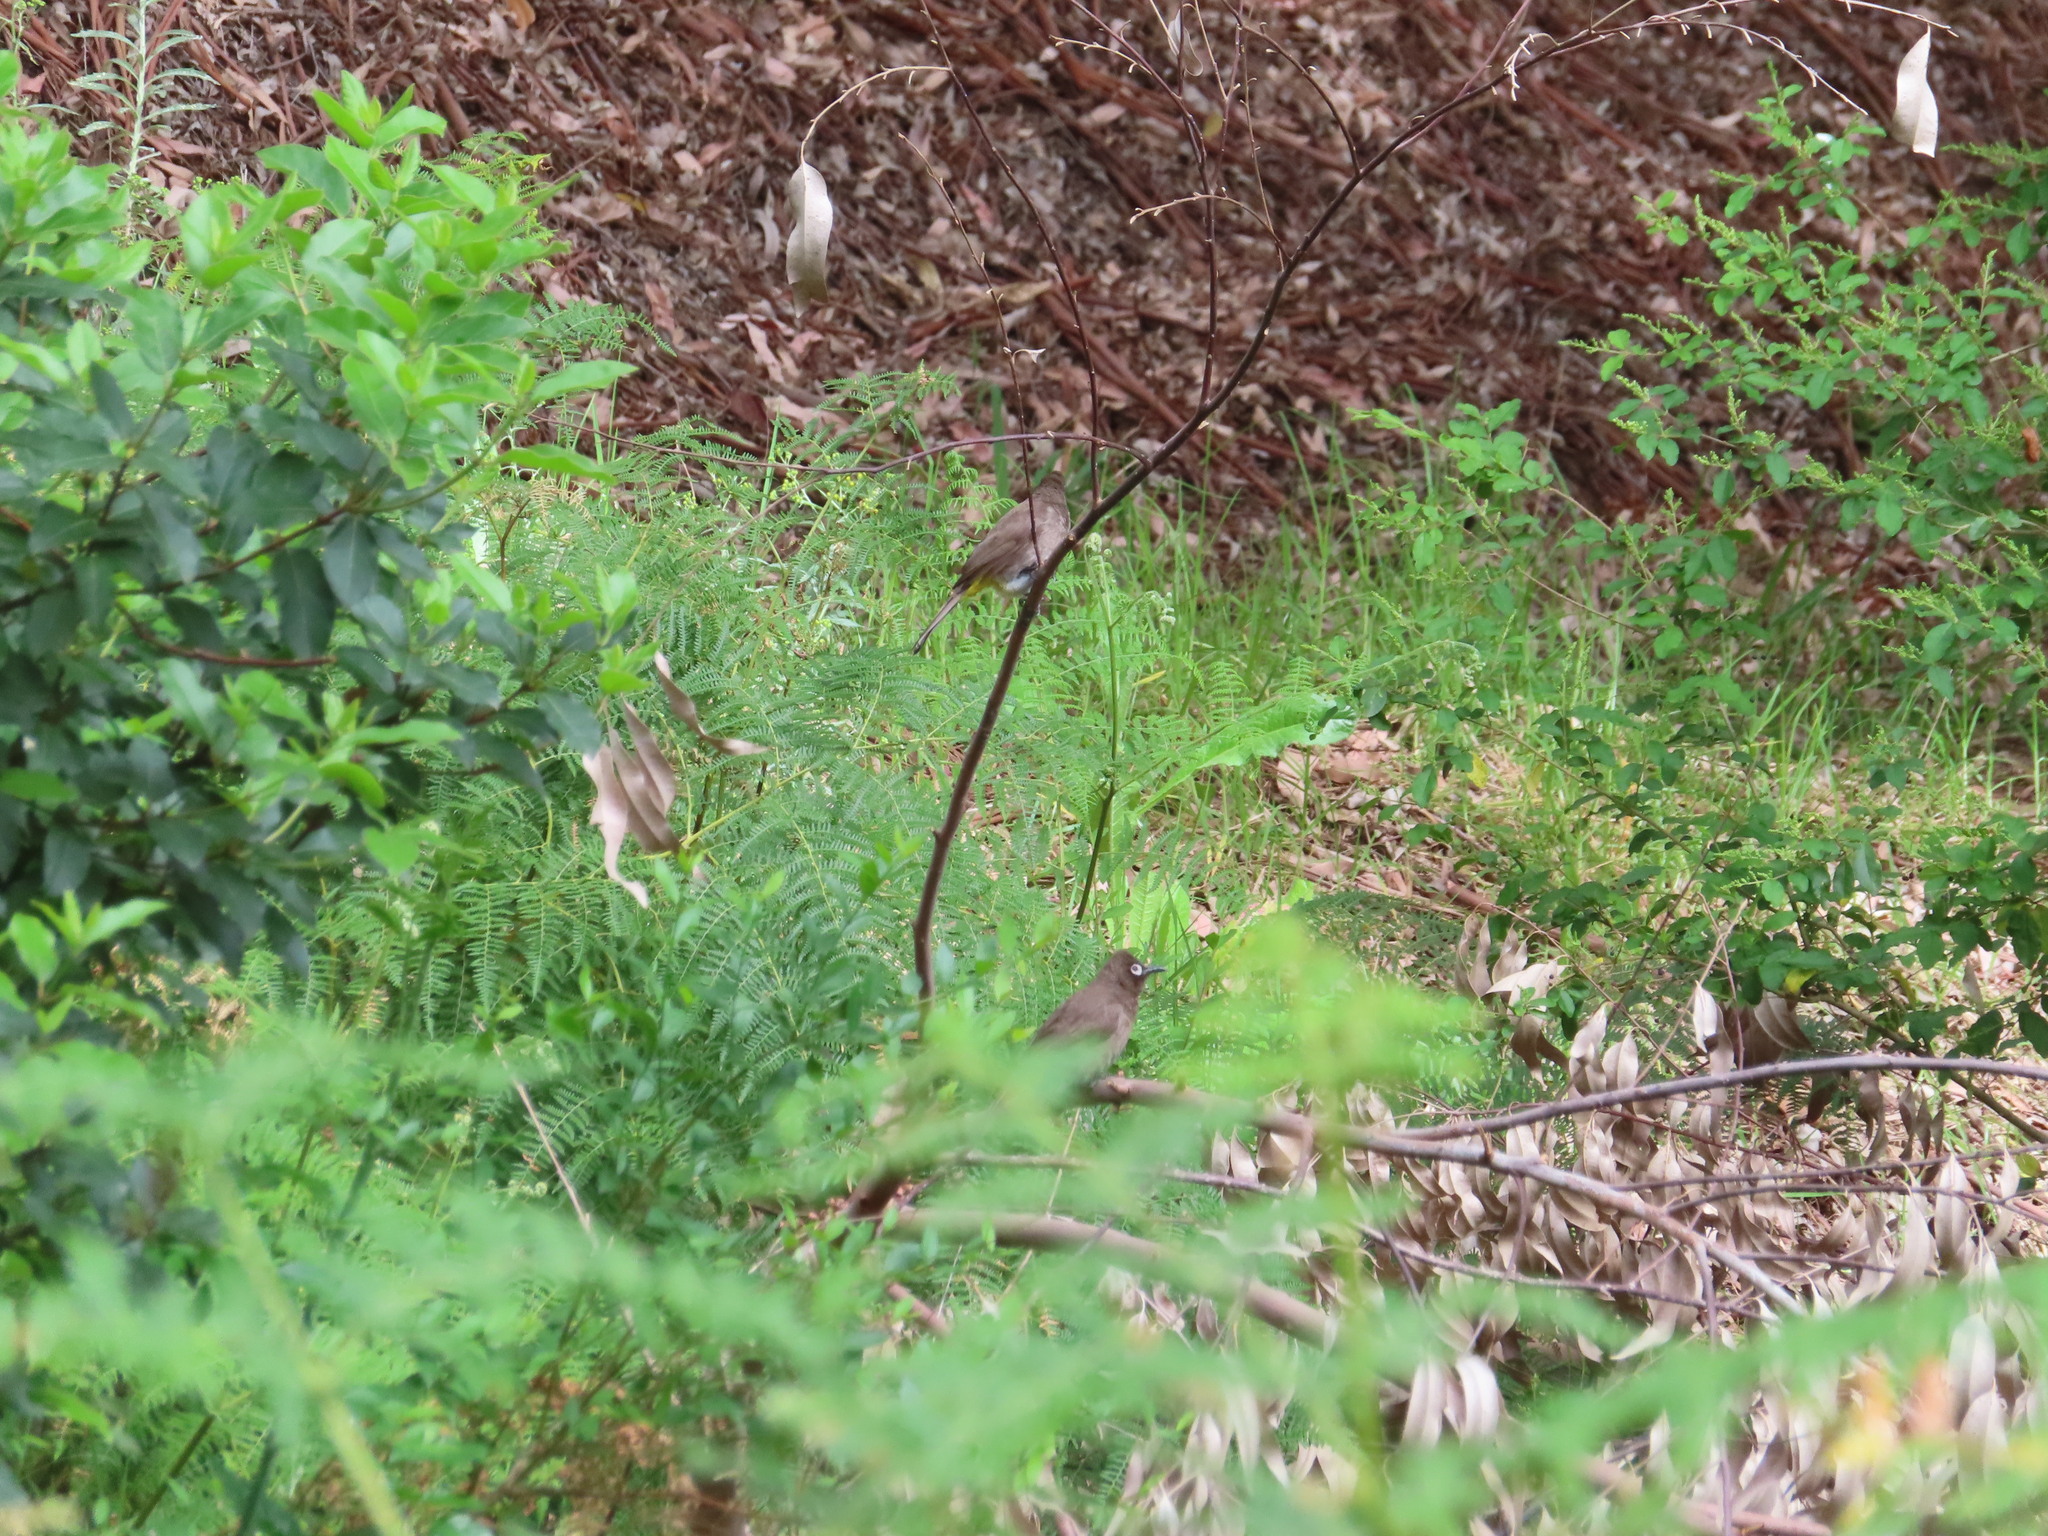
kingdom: Animalia
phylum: Chordata
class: Aves
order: Passeriformes
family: Pycnonotidae
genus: Pycnonotus
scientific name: Pycnonotus capensis
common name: Cape bulbul
